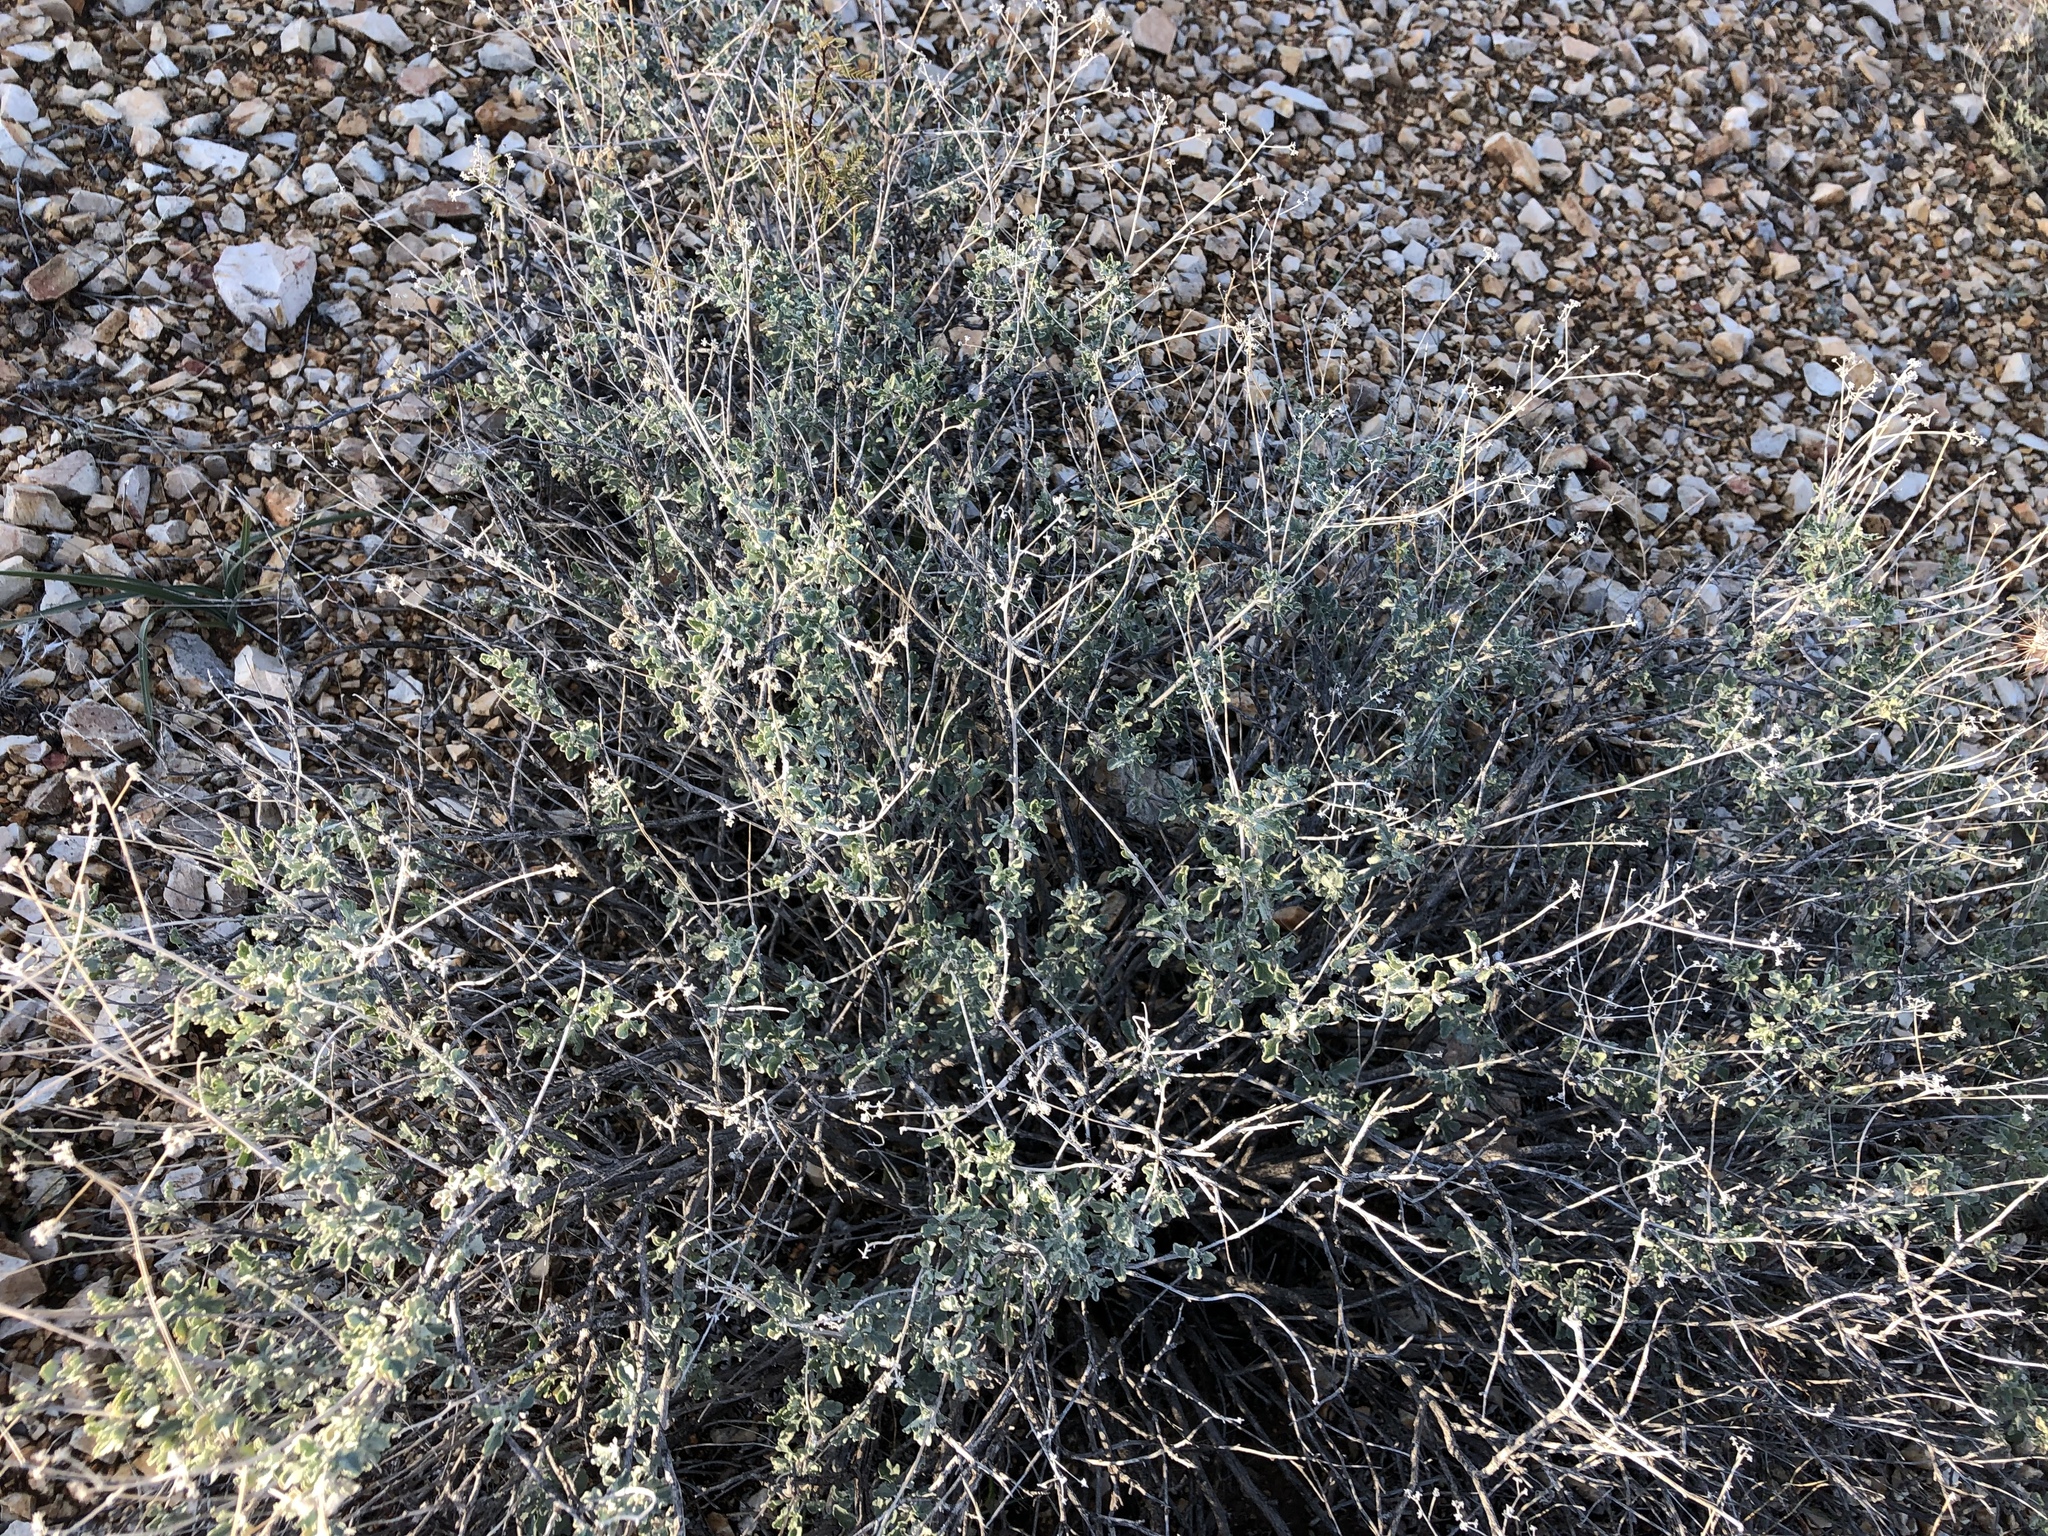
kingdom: Plantae
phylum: Tracheophyta
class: Magnoliopsida
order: Asterales
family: Asteraceae
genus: Parthenium
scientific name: Parthenium incanum
